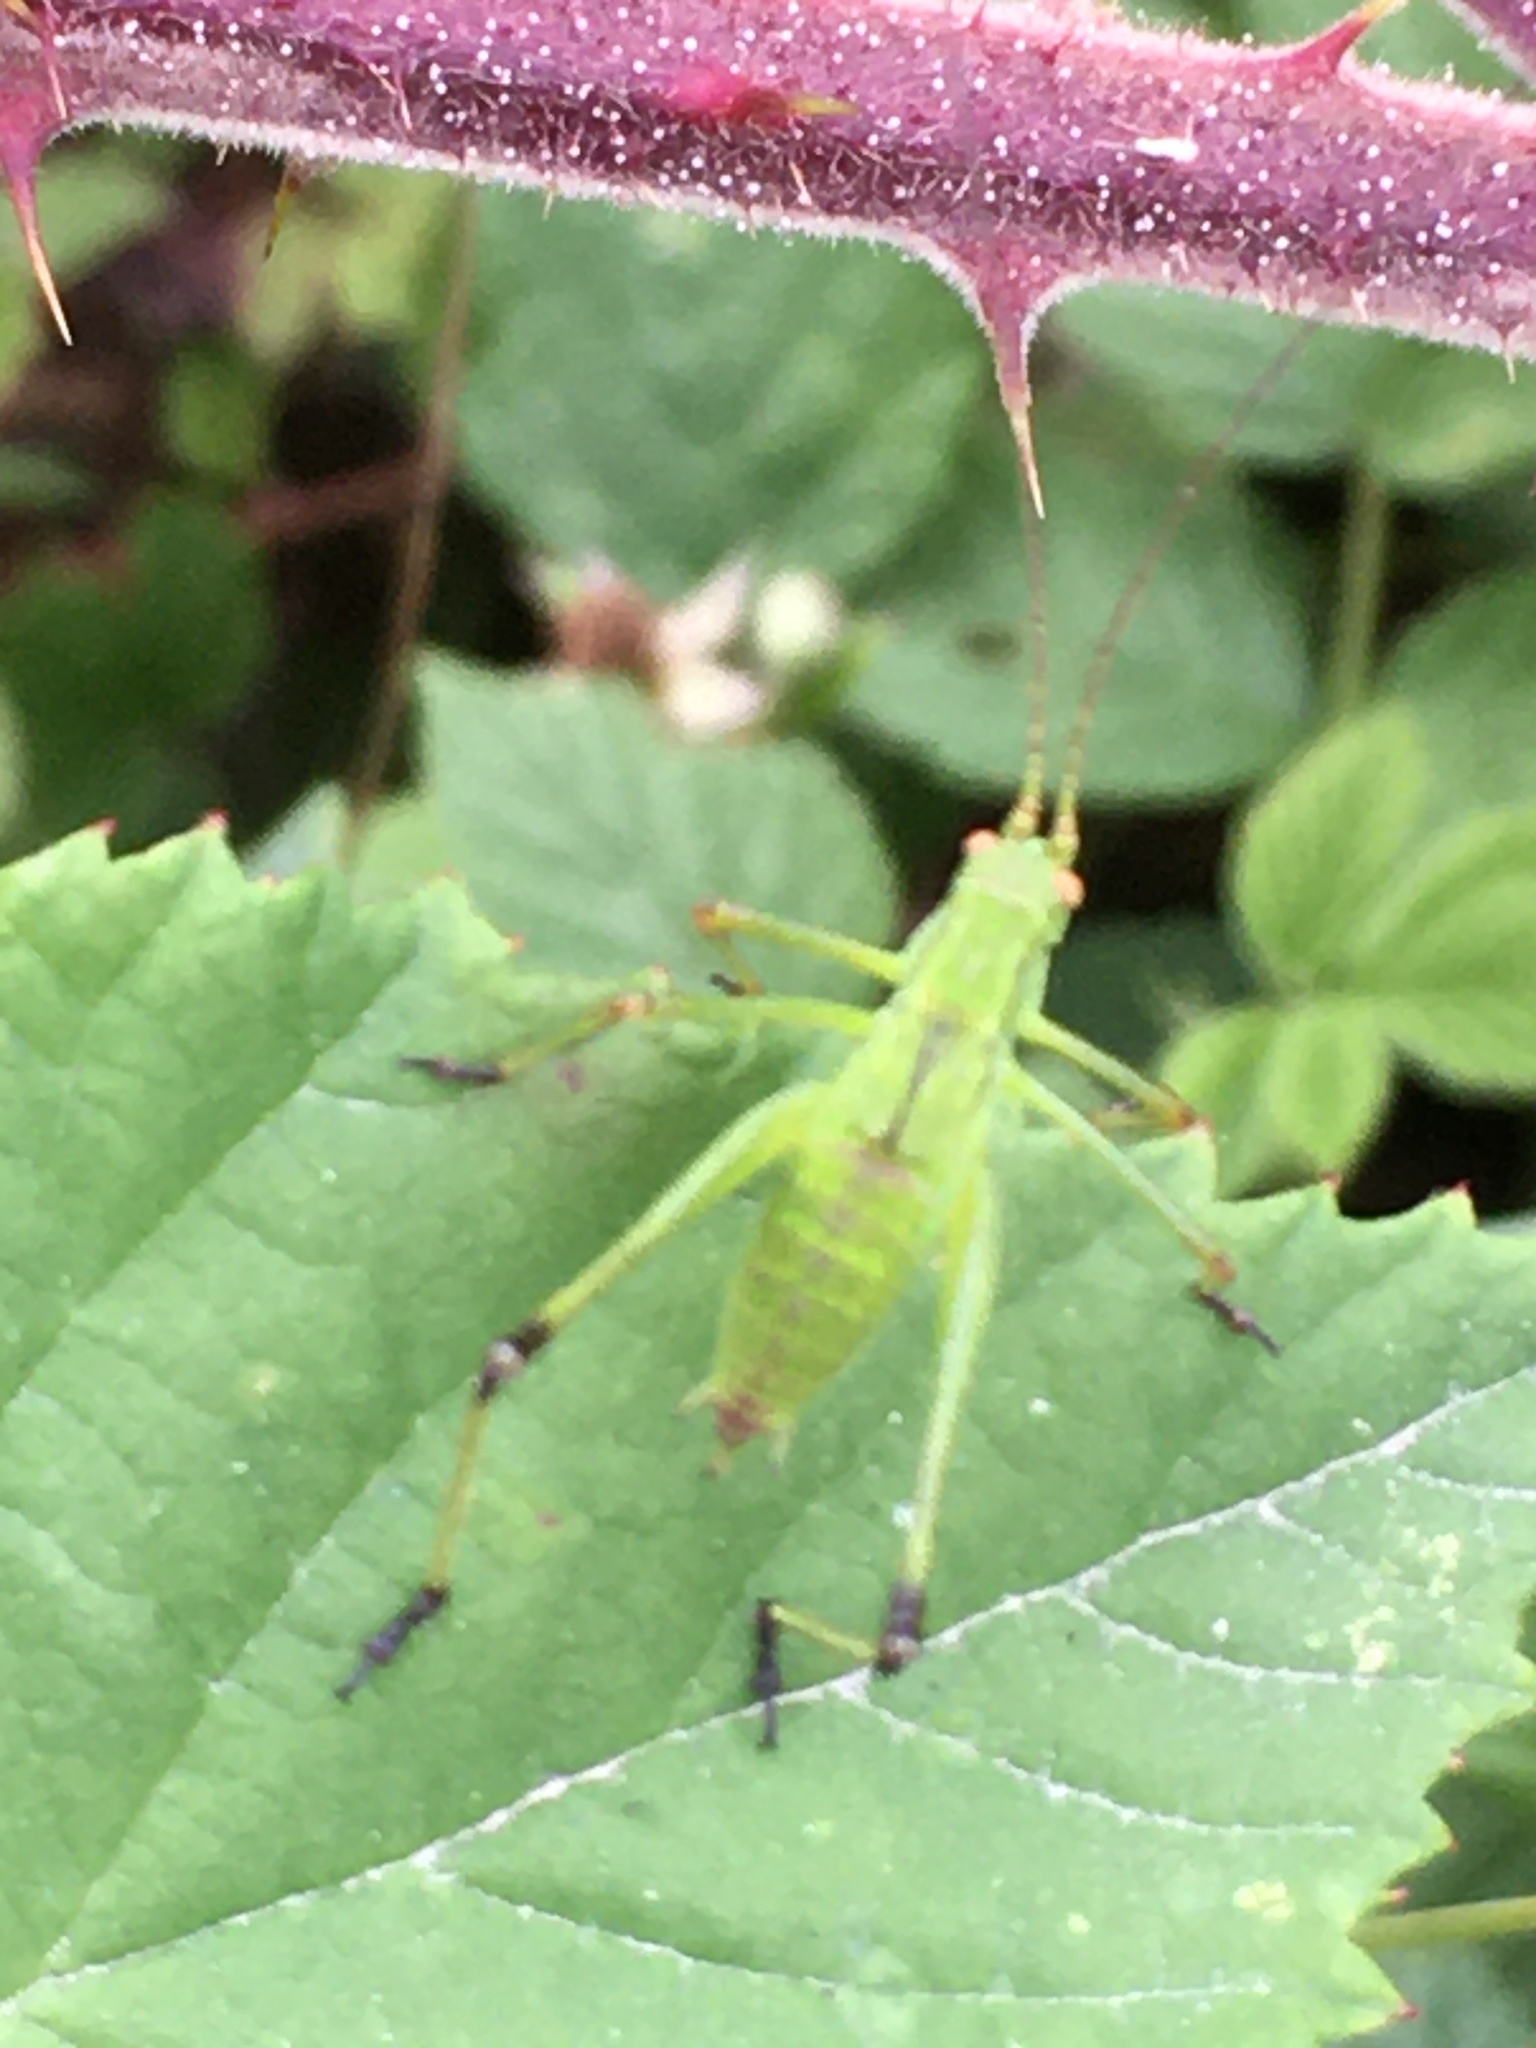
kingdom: Animalia
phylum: Arthropoda
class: Insecta
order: Orthoptera
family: Tettigoniidae
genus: Phaneroptera
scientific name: Phaneroptera falcata
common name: Sickle-bearing bush-cricket
